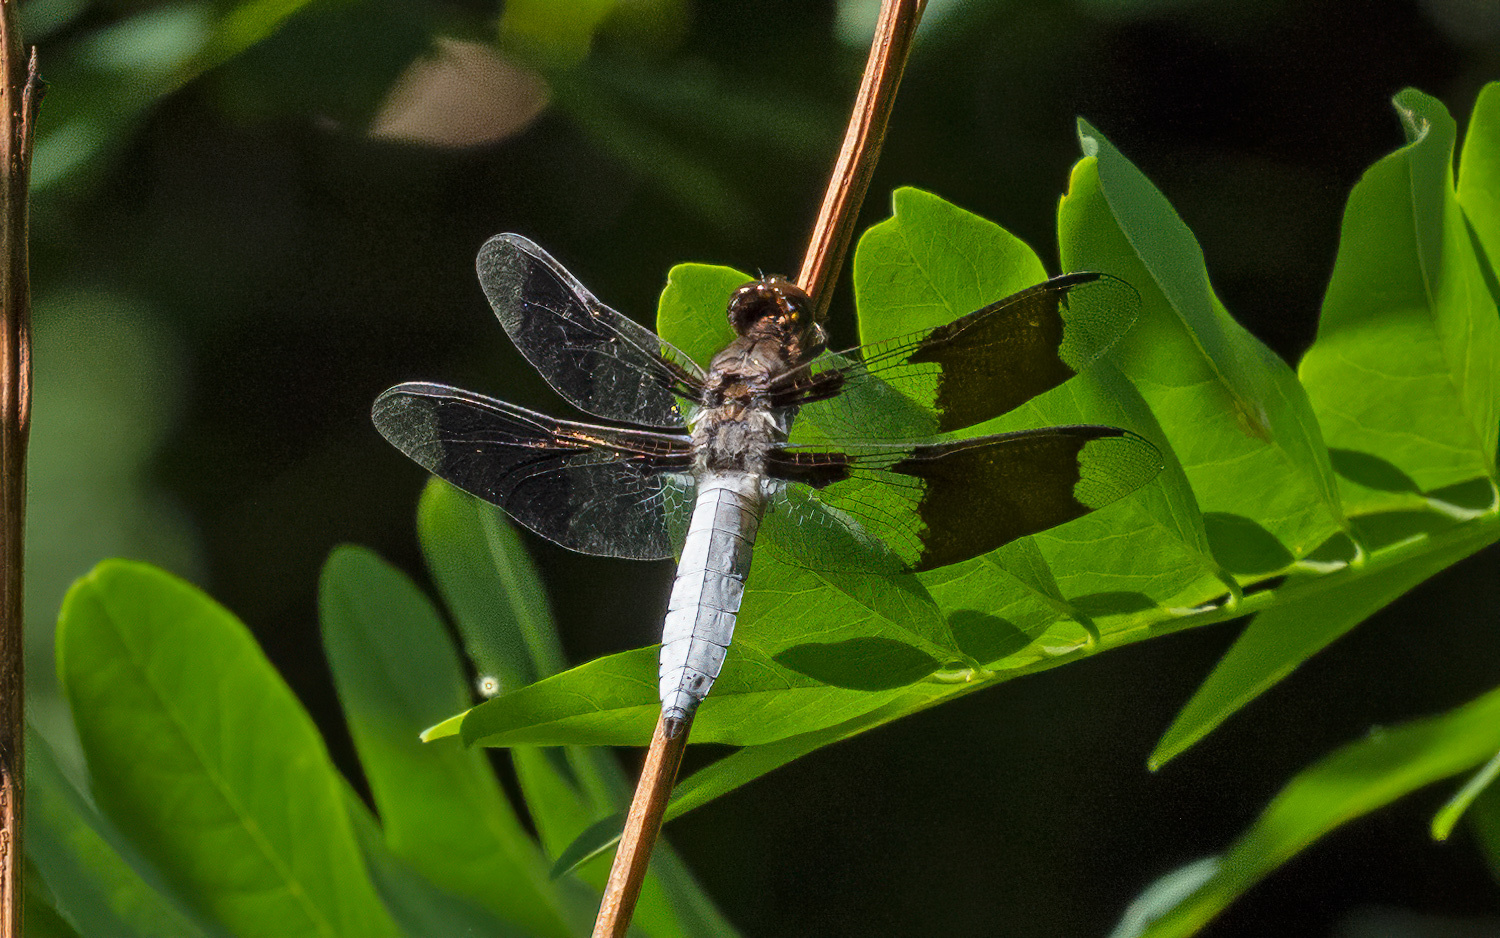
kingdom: Animalia
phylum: Arthropoda
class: Insecta
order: Odonata
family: Libellulidae
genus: Plathemis
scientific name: Plathemis lydia
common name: Common whitetail
